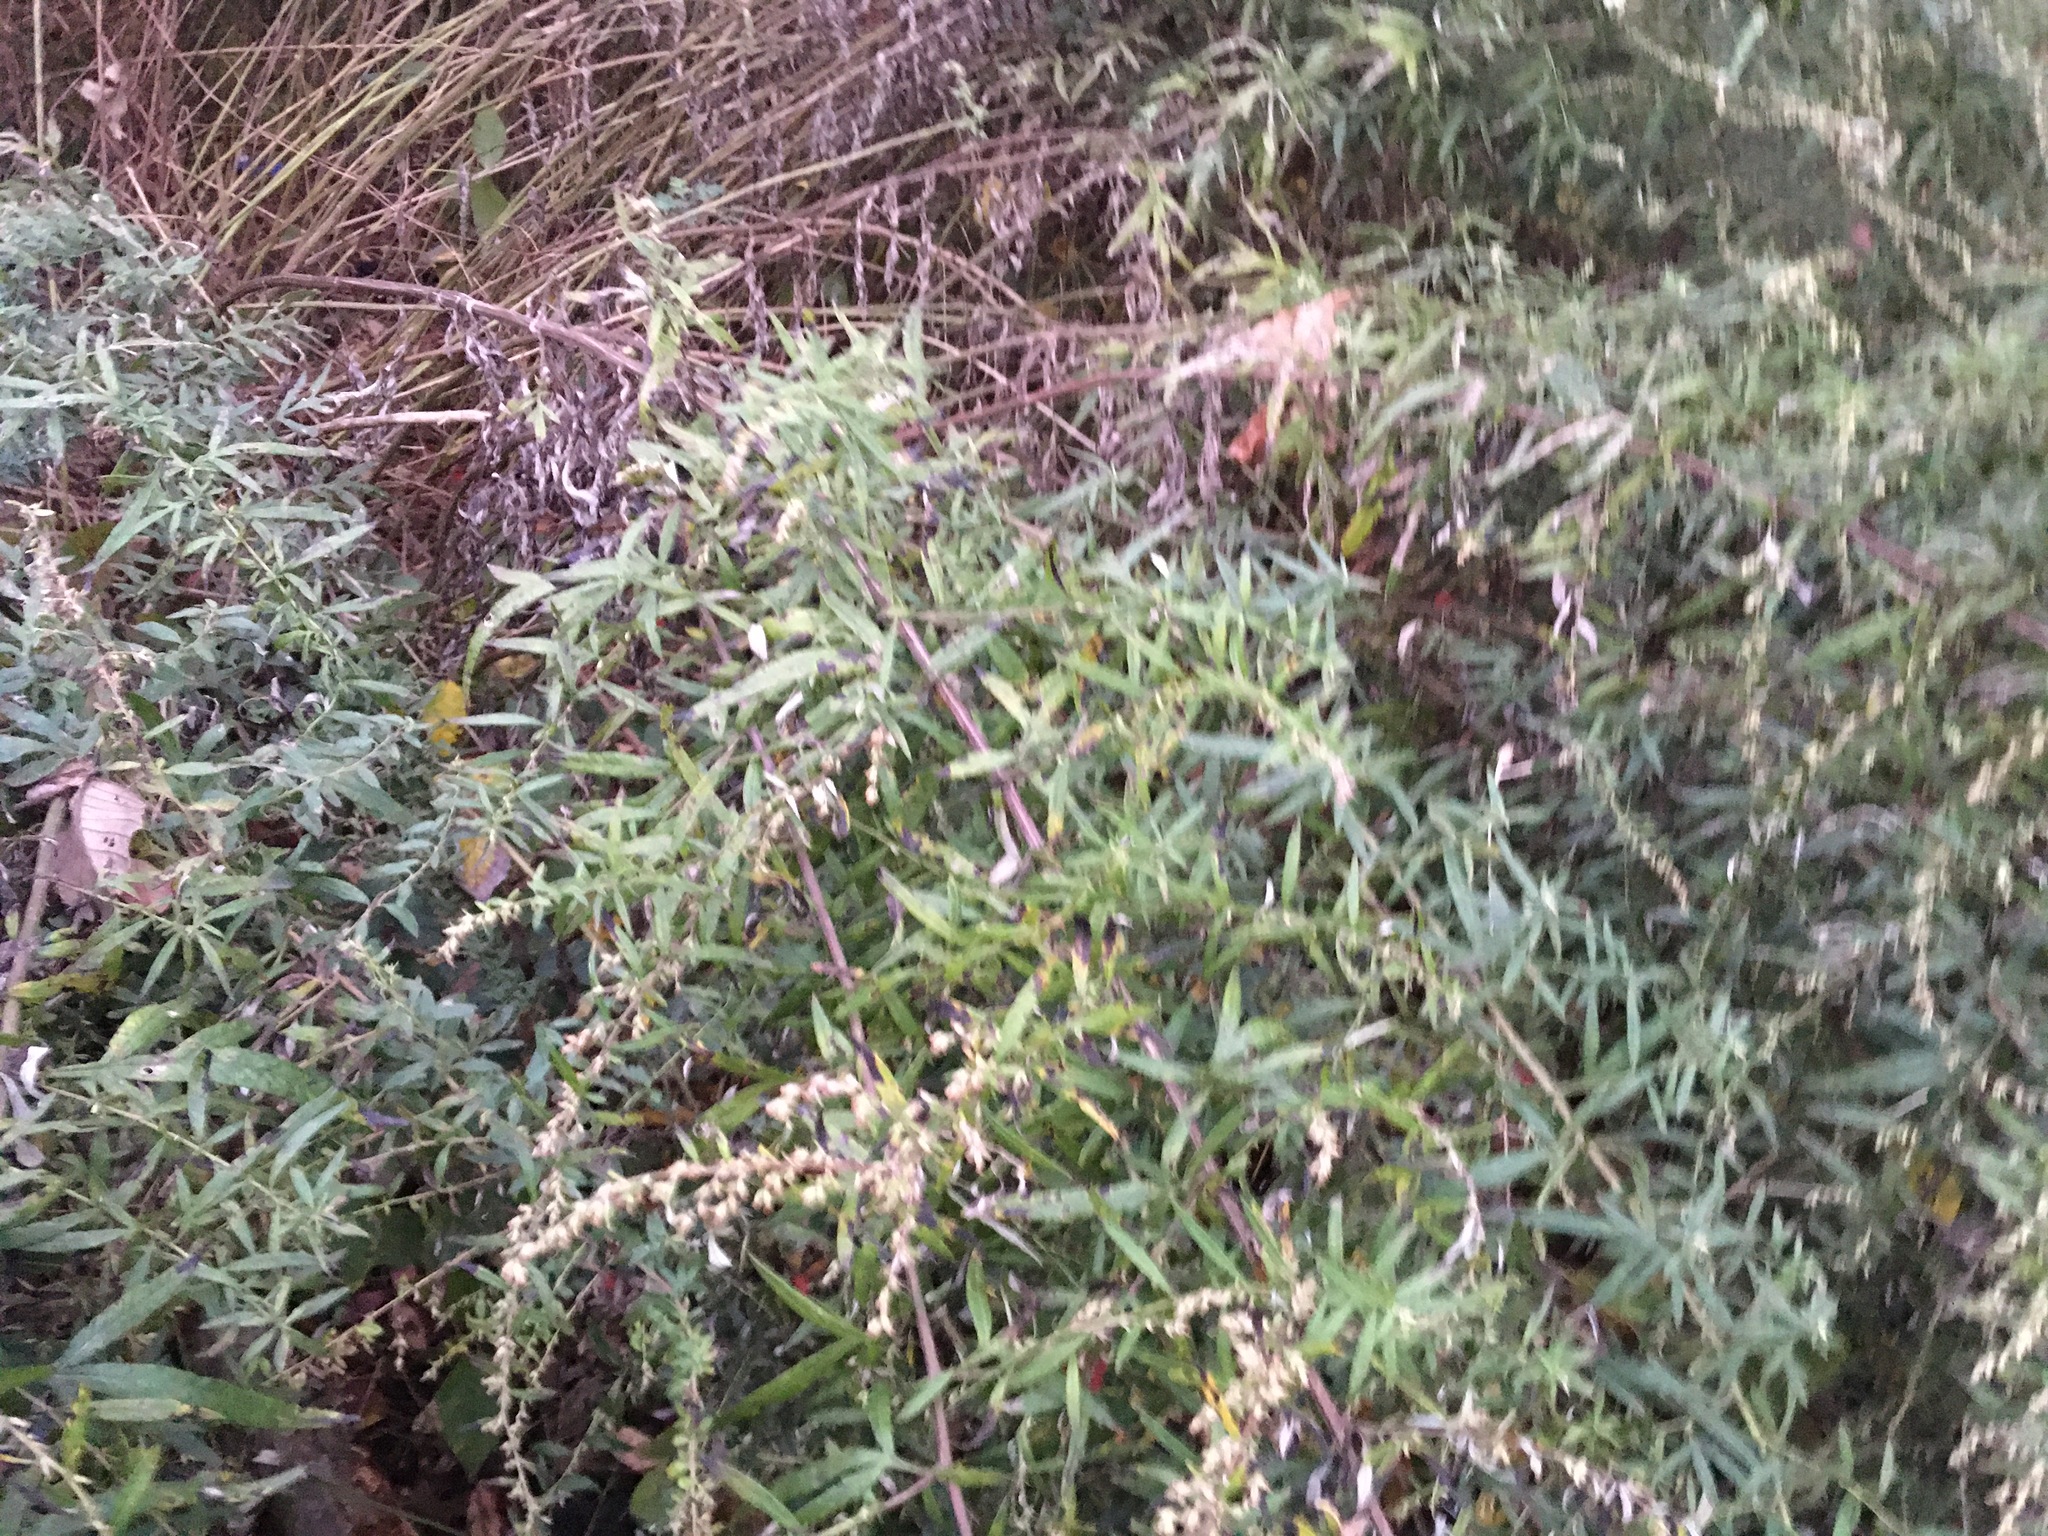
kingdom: Plantae
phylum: Tracheophyta
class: Magnoliopsida
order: Asterales
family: Asteraceae
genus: Artemisia
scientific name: Artemisia vulgaris
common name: Mugwort
